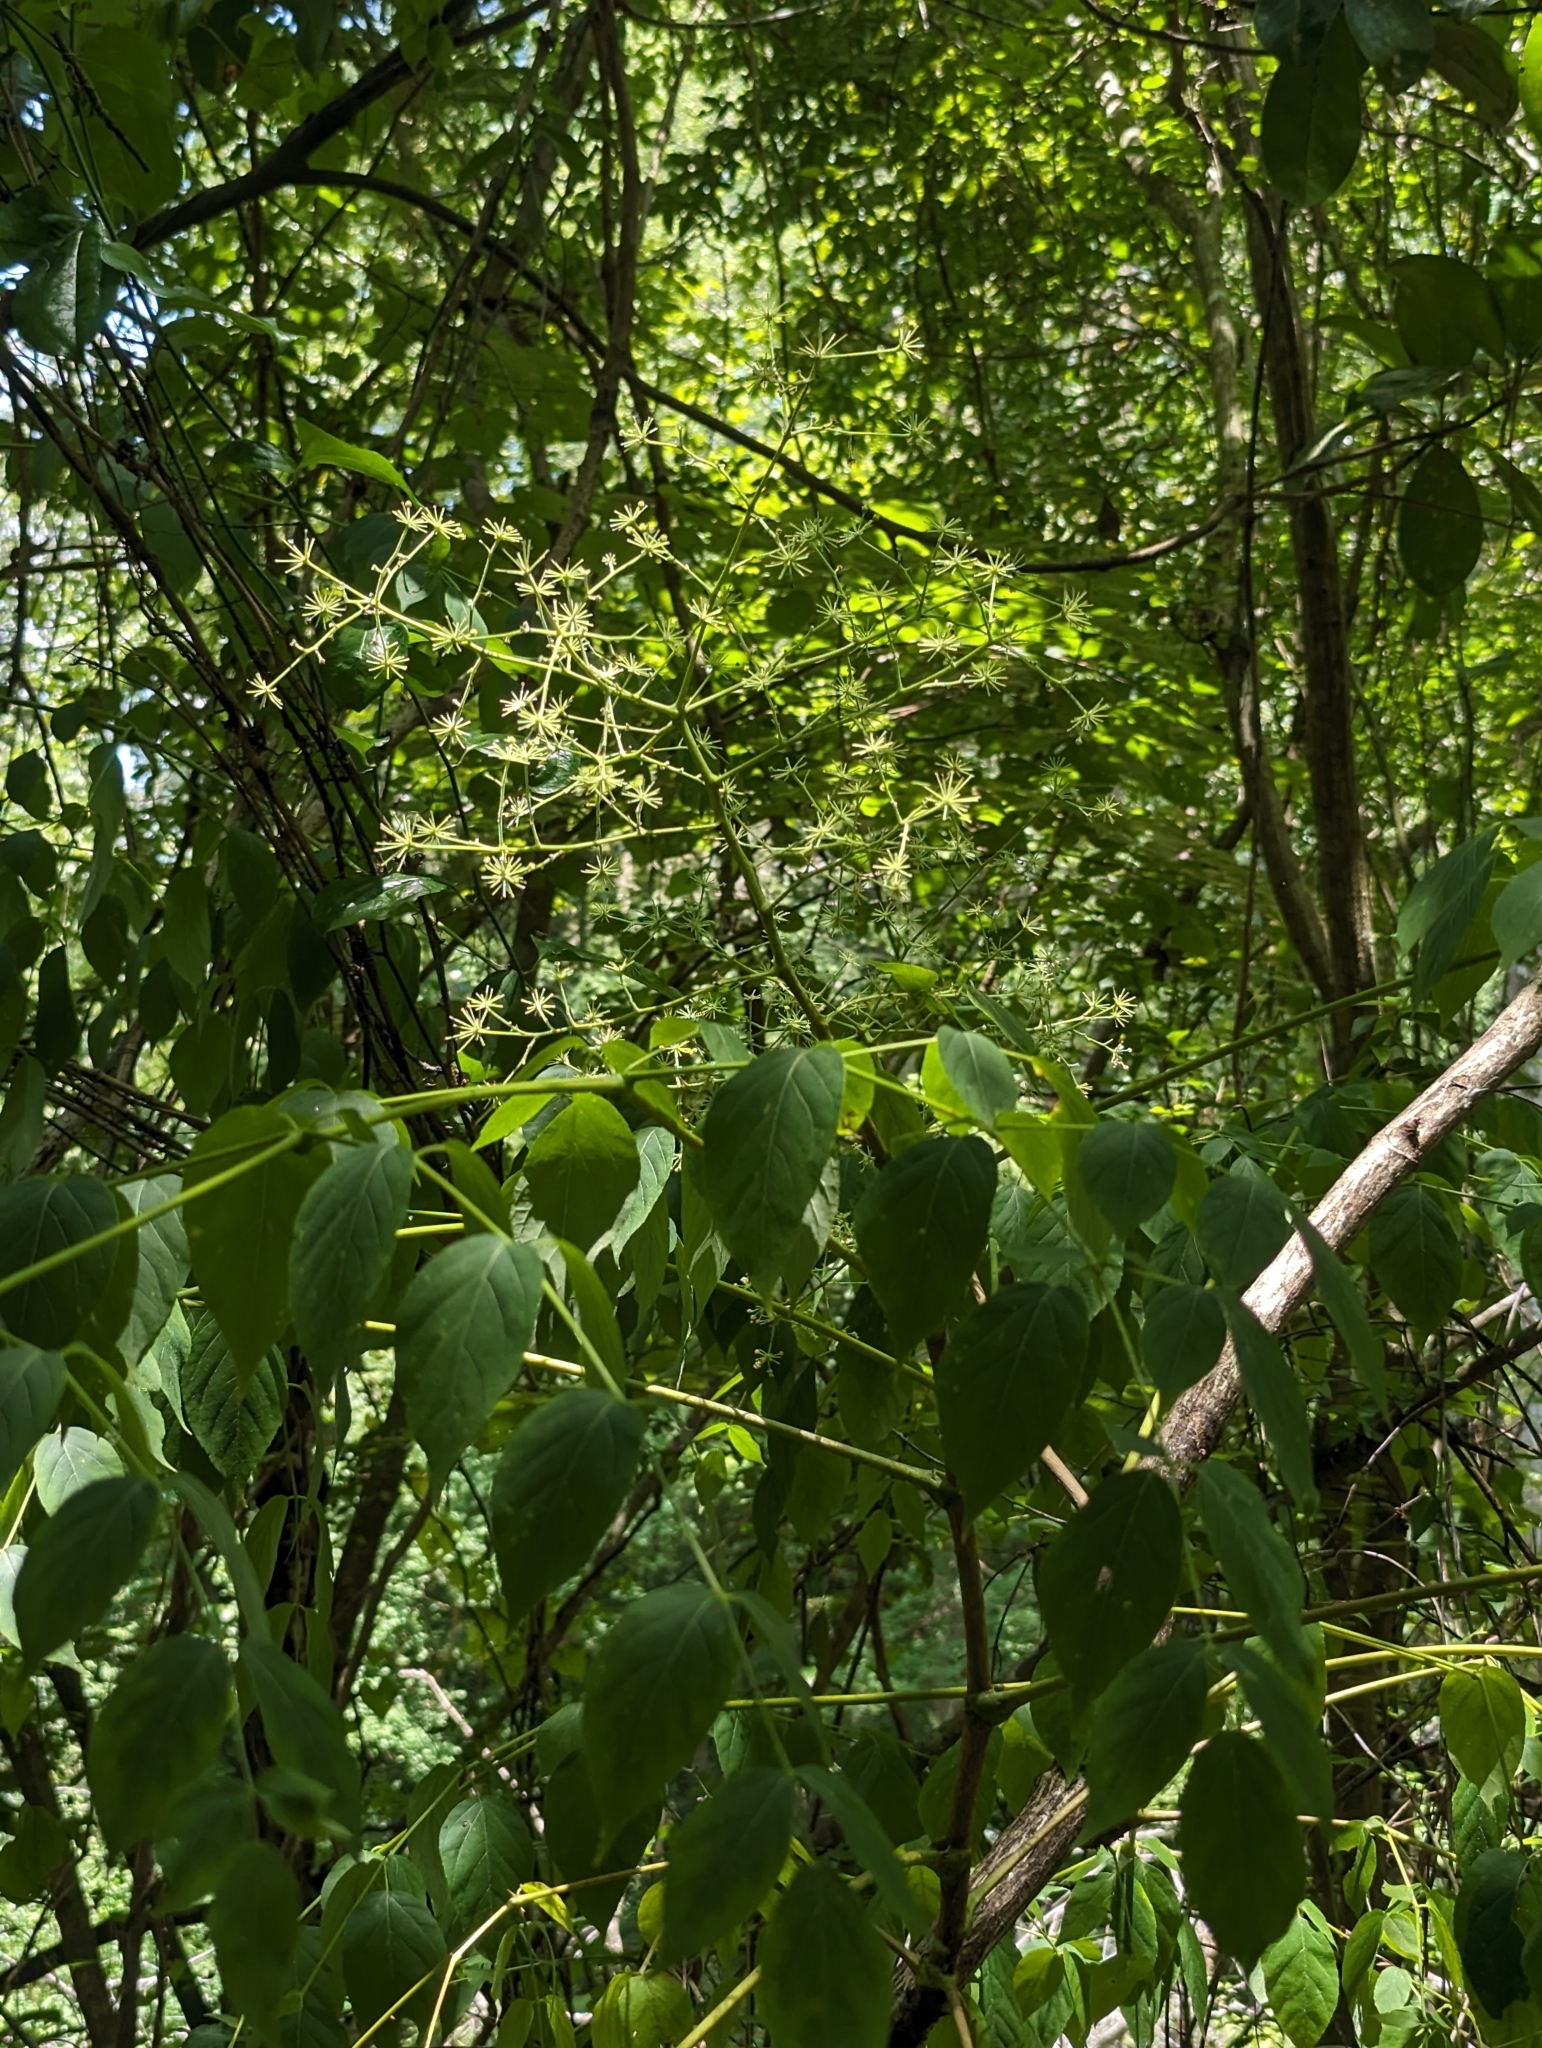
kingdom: Plantae
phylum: Tracheophyta
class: Magnoliopsida
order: Apiales
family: Araliaceae
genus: Aralia
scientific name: Aralia spinosa
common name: Hercules'-club
